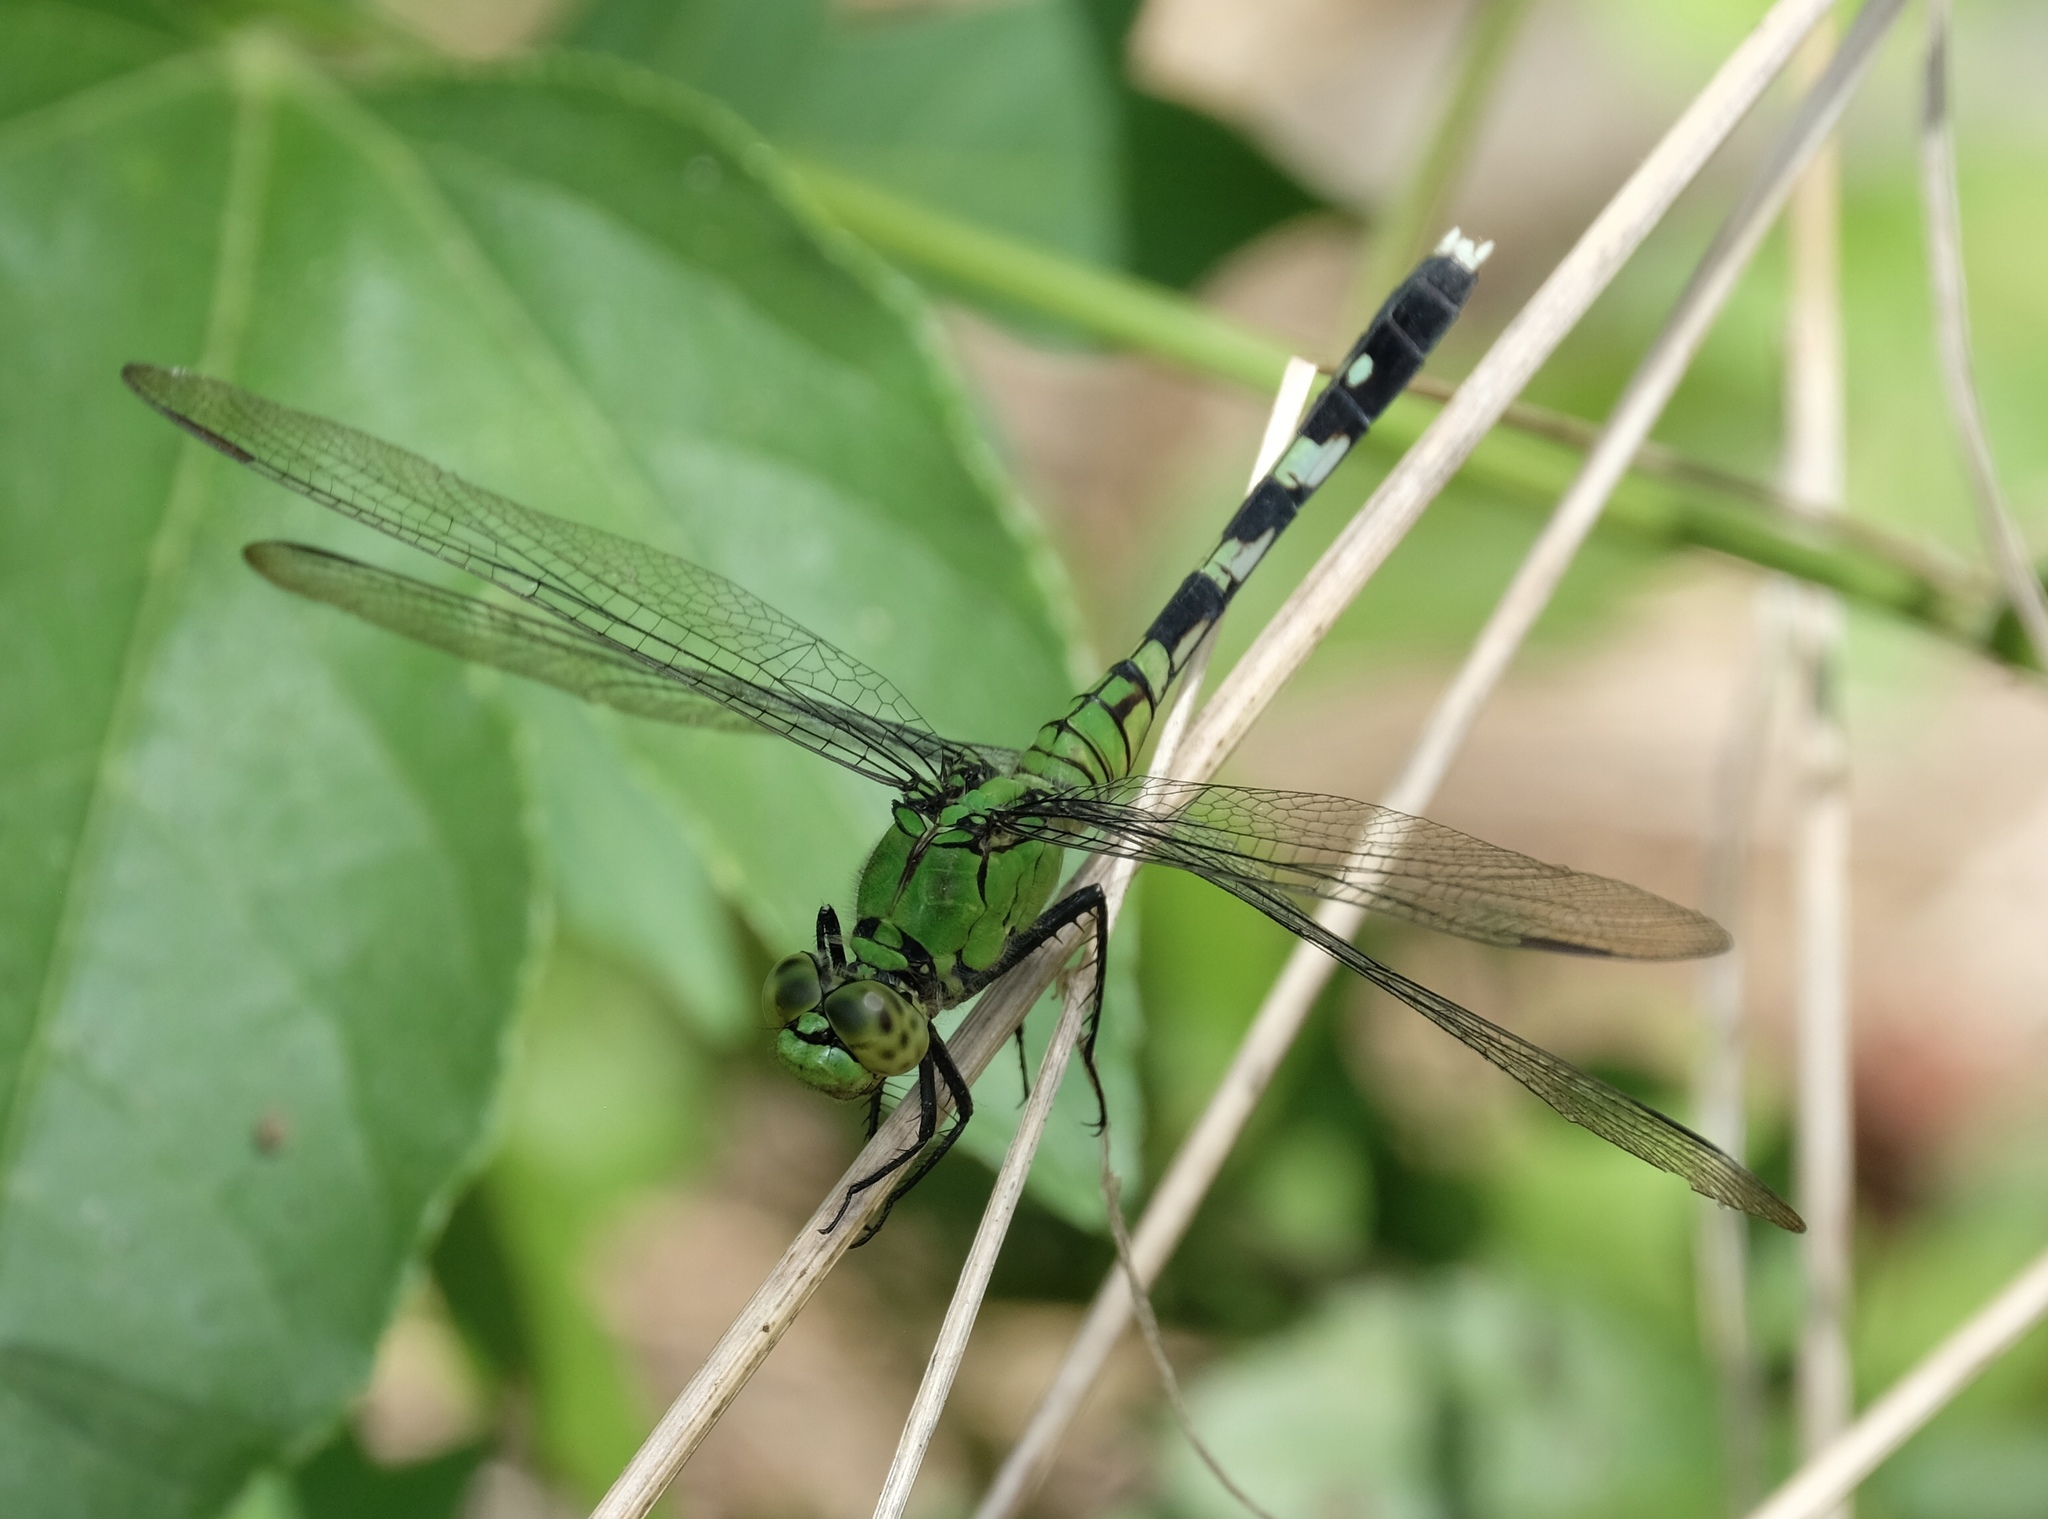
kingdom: Animalia
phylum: Arthropoda
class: Insecta
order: Odonata
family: Libellulidae
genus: Erythemis
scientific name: Erythemis simplicicollis
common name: Eastern pondhawk
